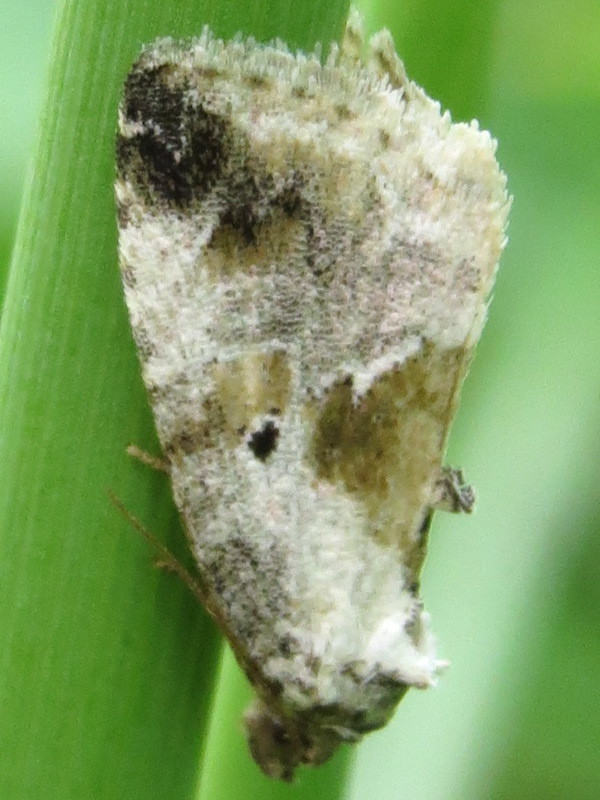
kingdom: Animalia
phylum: Arthropoda
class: Insecta
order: Lepidoptera
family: Noctuidae
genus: Maliattha
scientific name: Maliattha synochitis
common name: Black-dotted glyph
